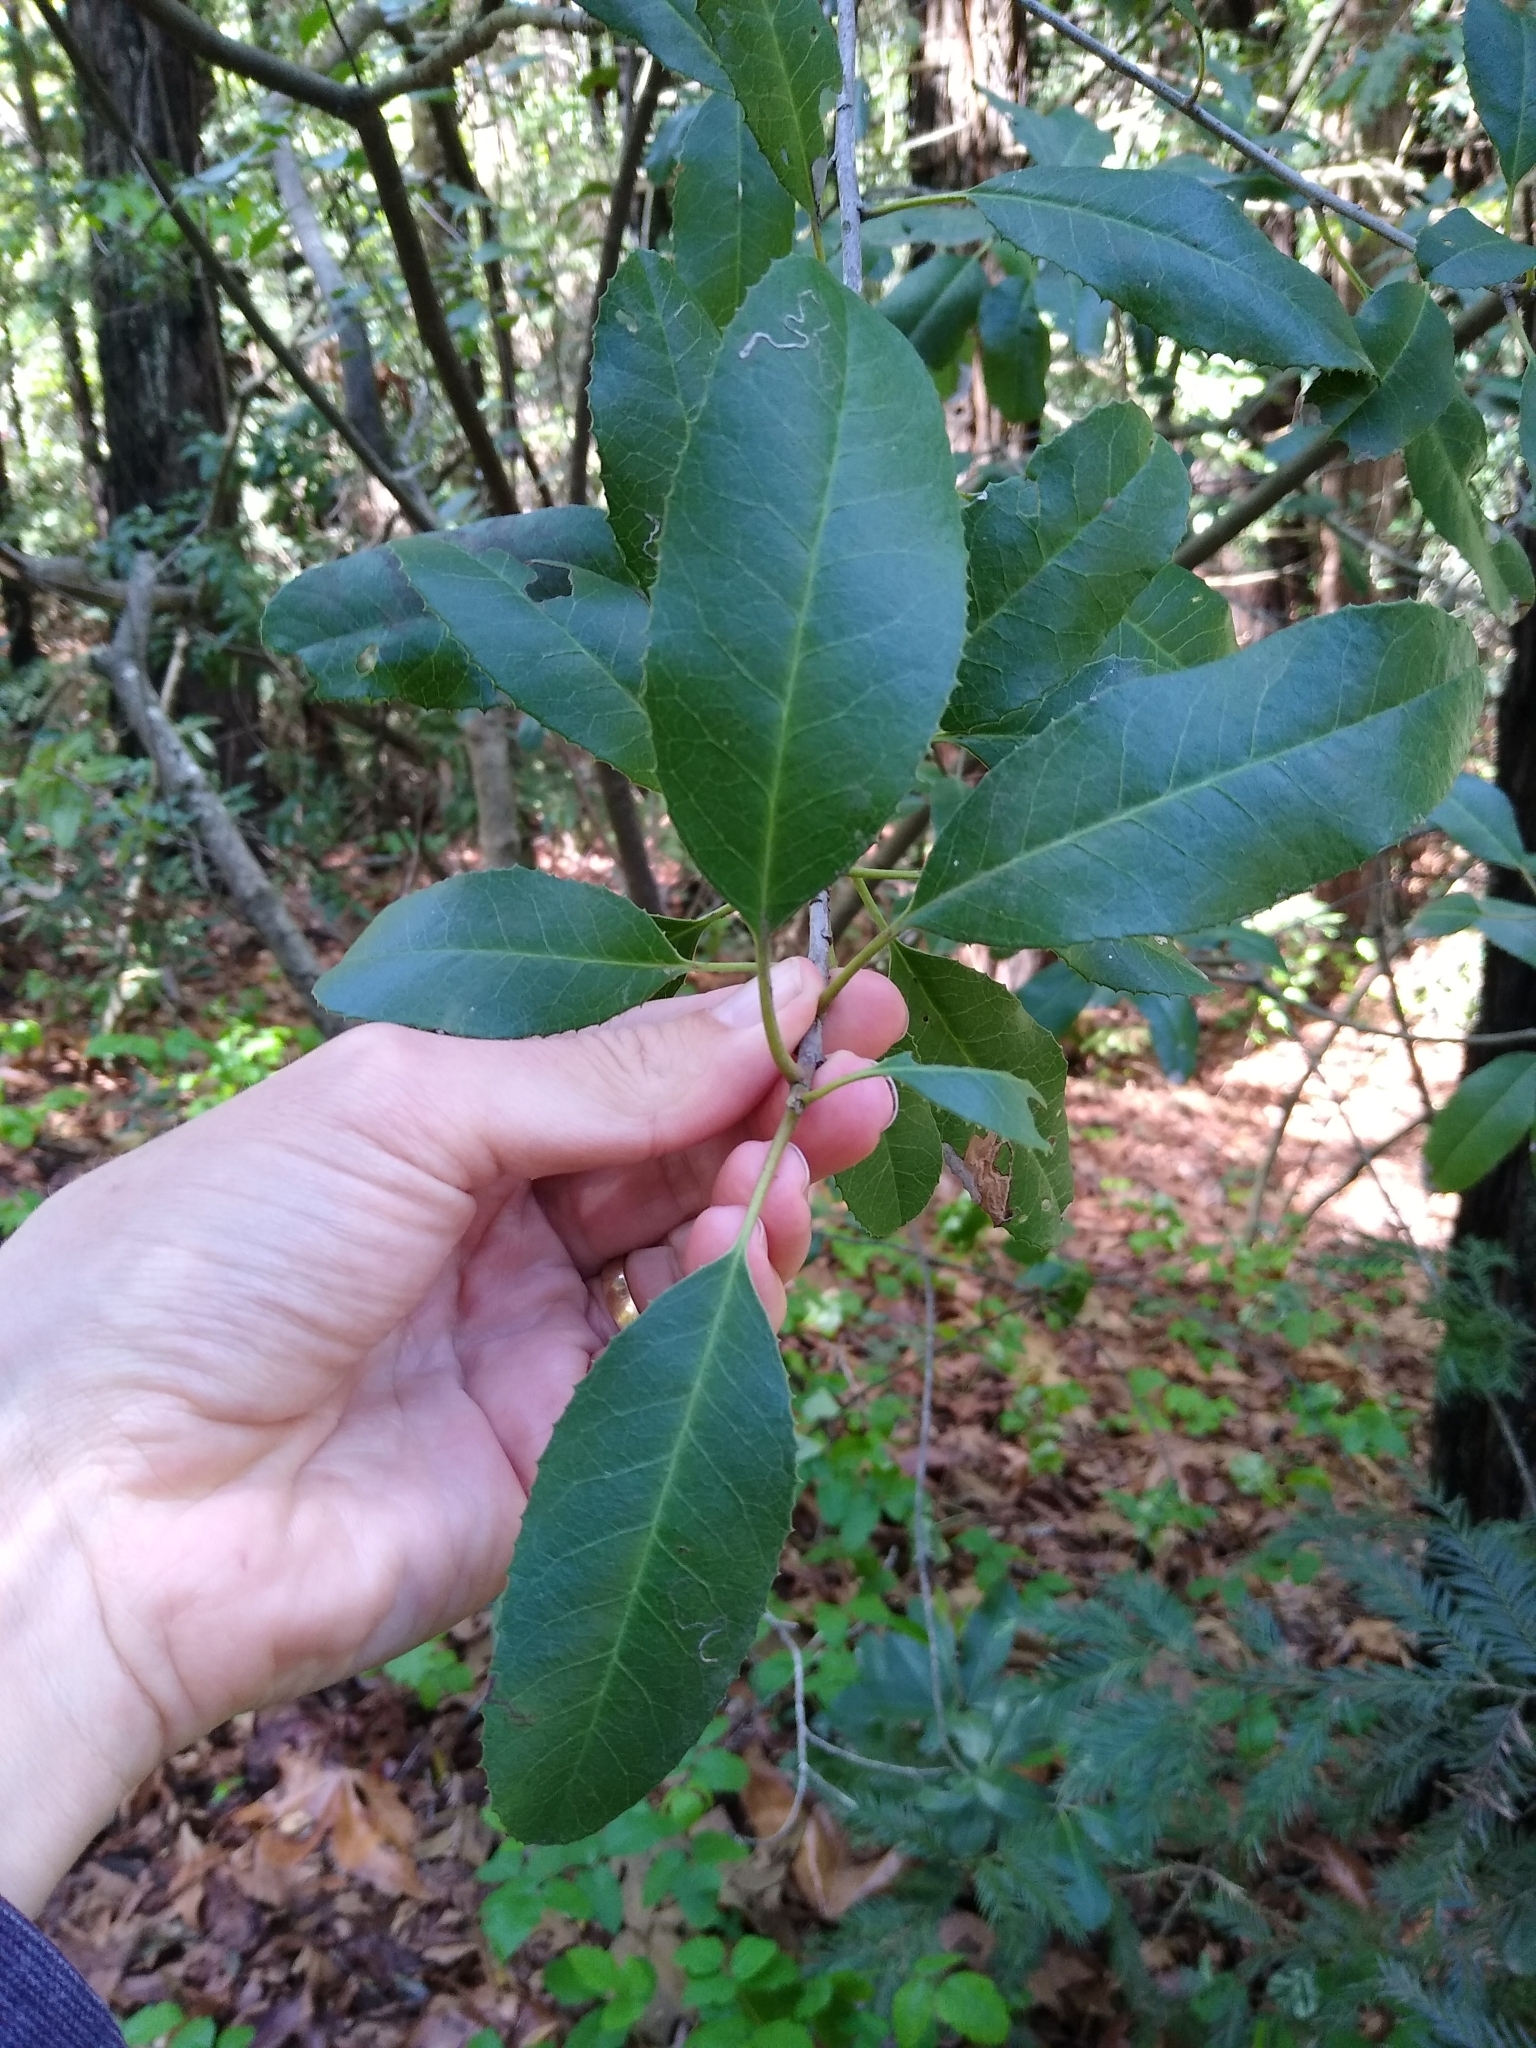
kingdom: Plantae
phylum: Tracheophyta
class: Magnoliopsida
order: Rosales
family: Rosaceae
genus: Heteromeles
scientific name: Heteromeles arbutifolia
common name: California-holly
